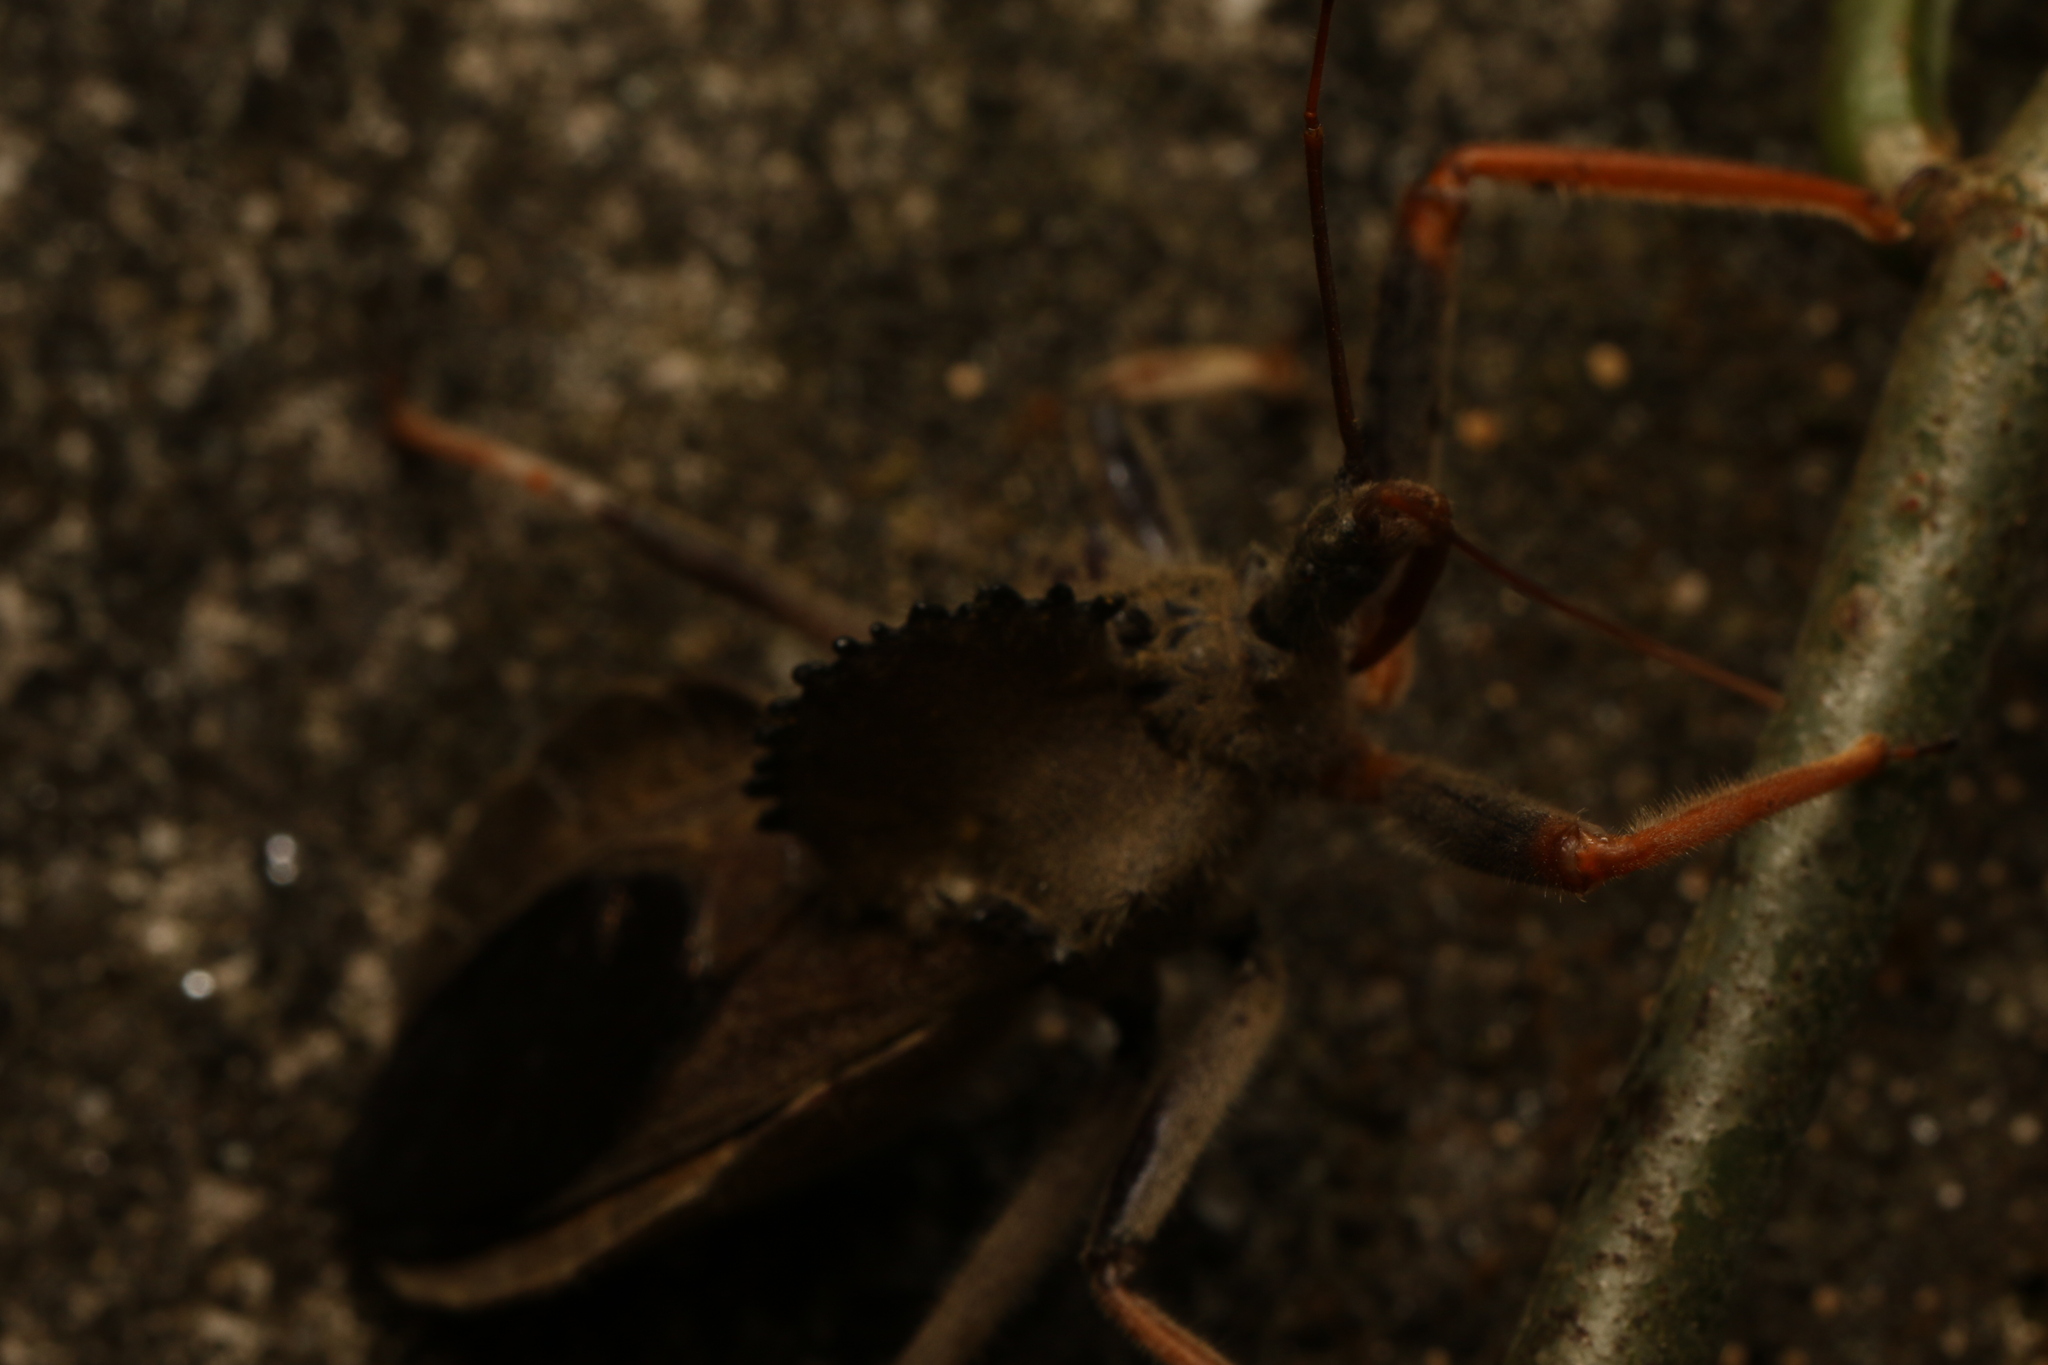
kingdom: Animalia
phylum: Arthropoda
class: Insecta
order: Hemiptera
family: Reduviidae
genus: Arilus
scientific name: Arilus carinatus
